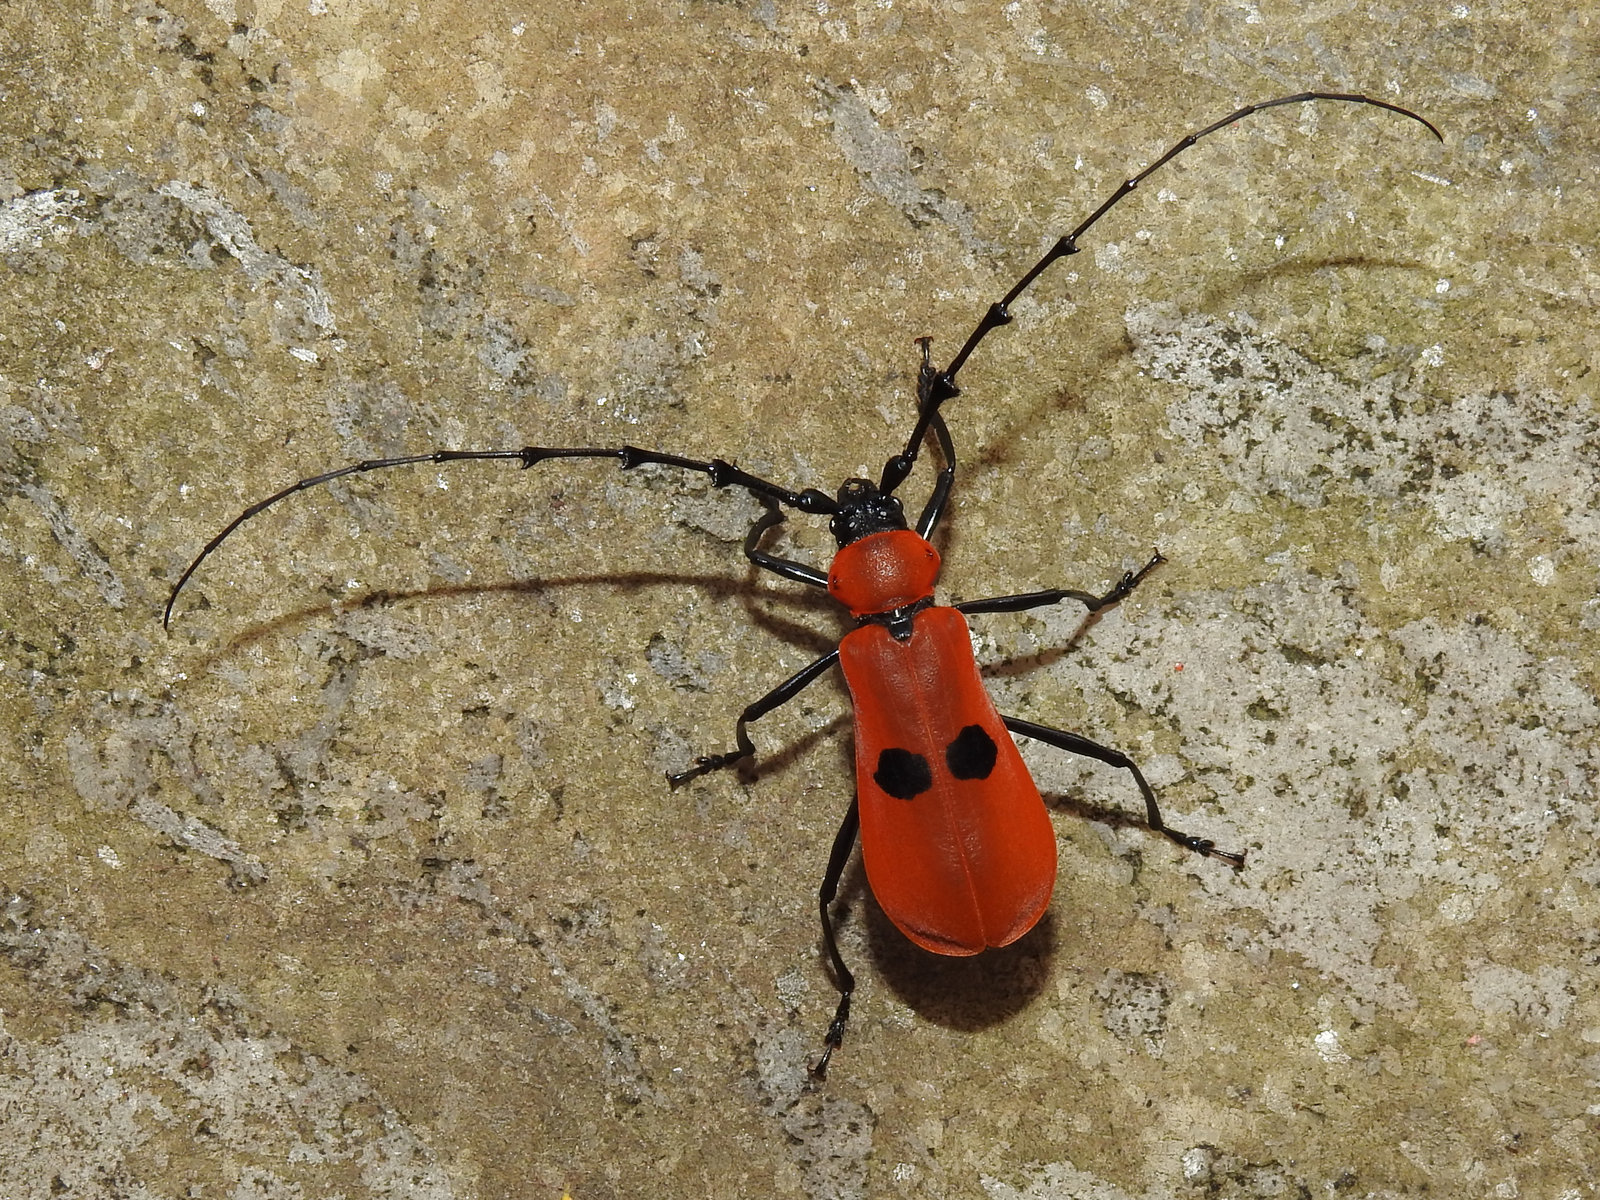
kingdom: Animalia
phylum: Arthropoda
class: Insecta
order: Coleoptera
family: Cerambycidae
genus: Rosalia
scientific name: Rosalia gravida
